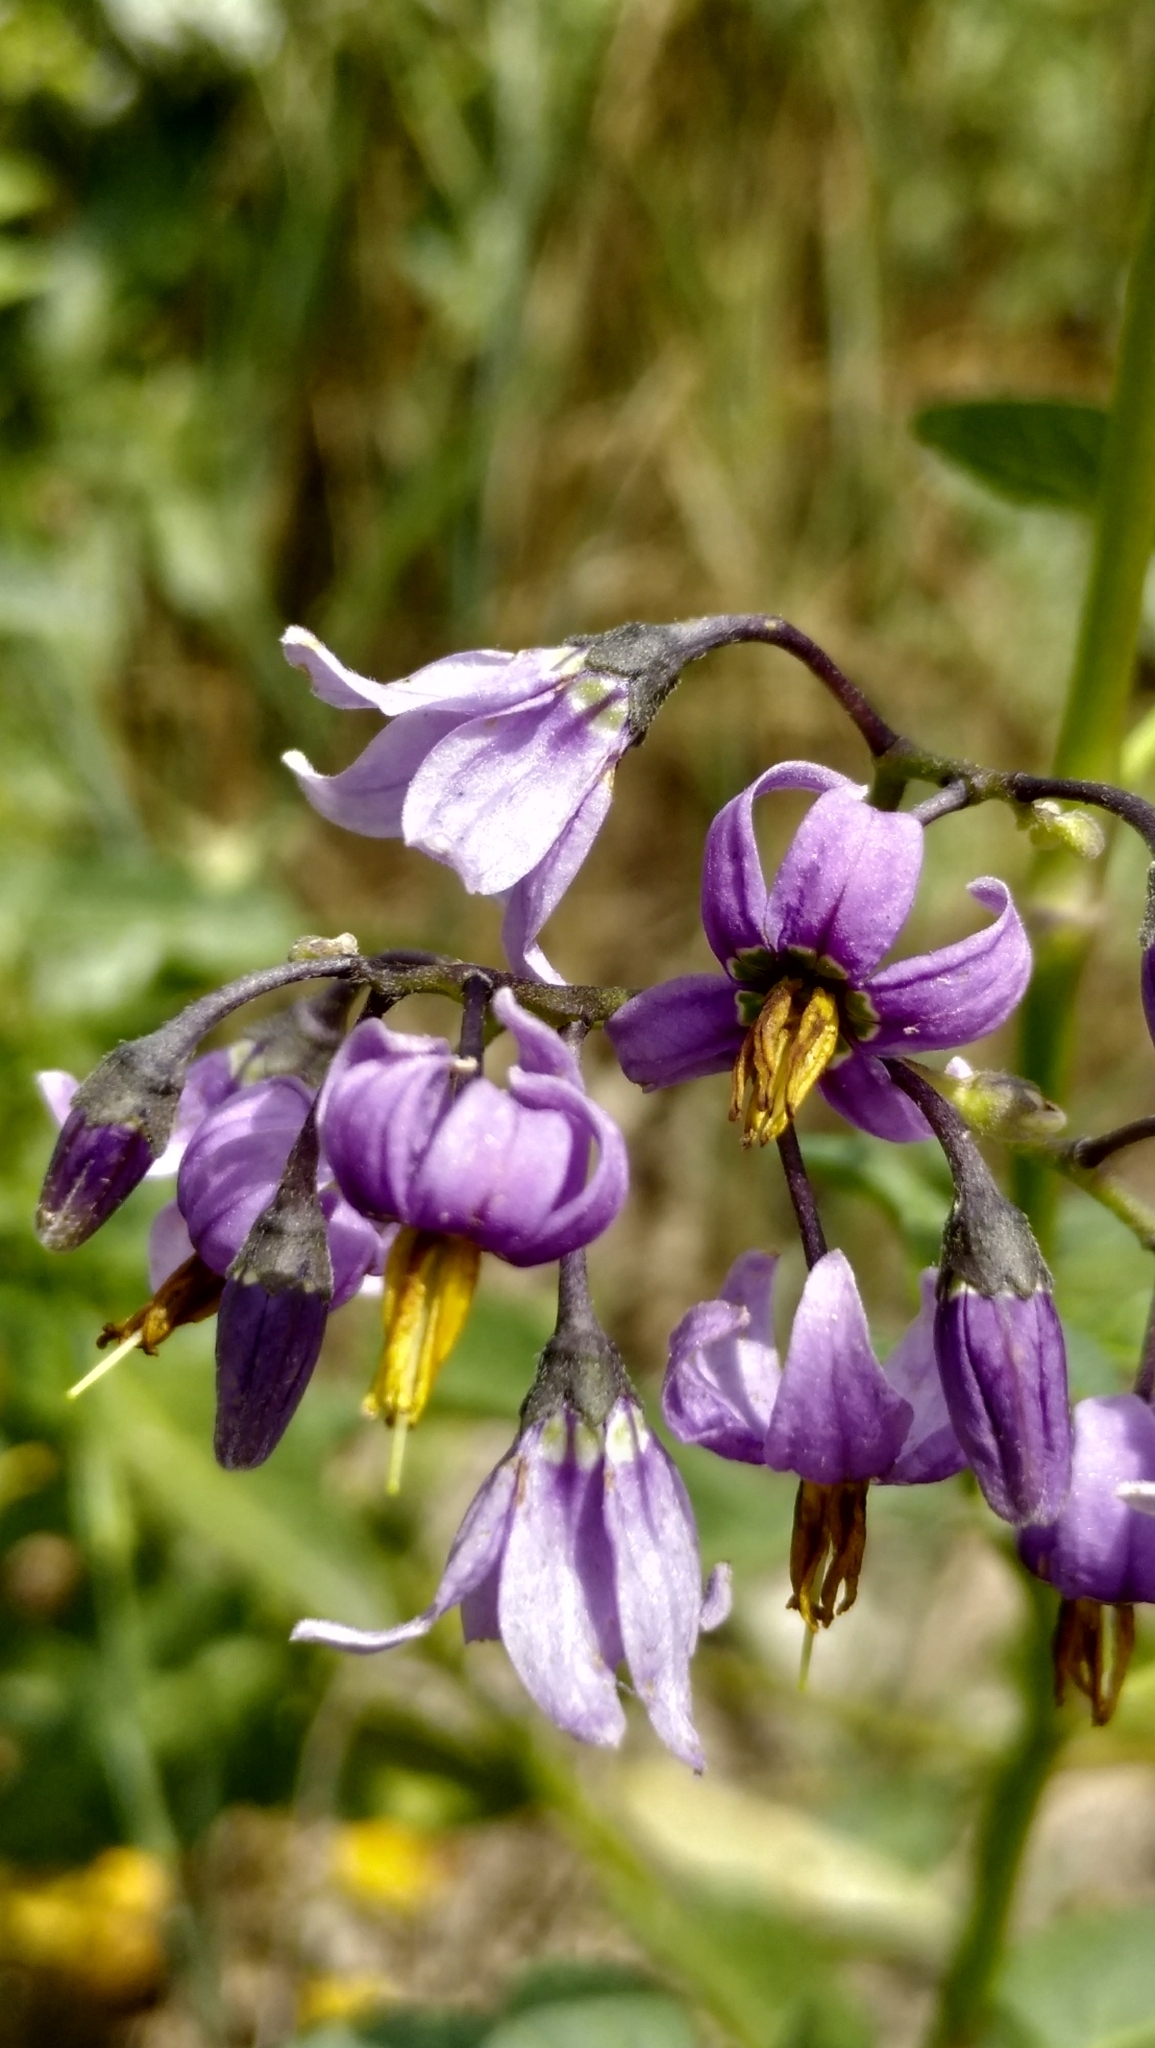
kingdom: Plantae
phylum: Tracheophyta
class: Magnoliopsida
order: Solanales
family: Solanaceae
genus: Solanum
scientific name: Solanum dulcamara
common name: Climbing nightshade
